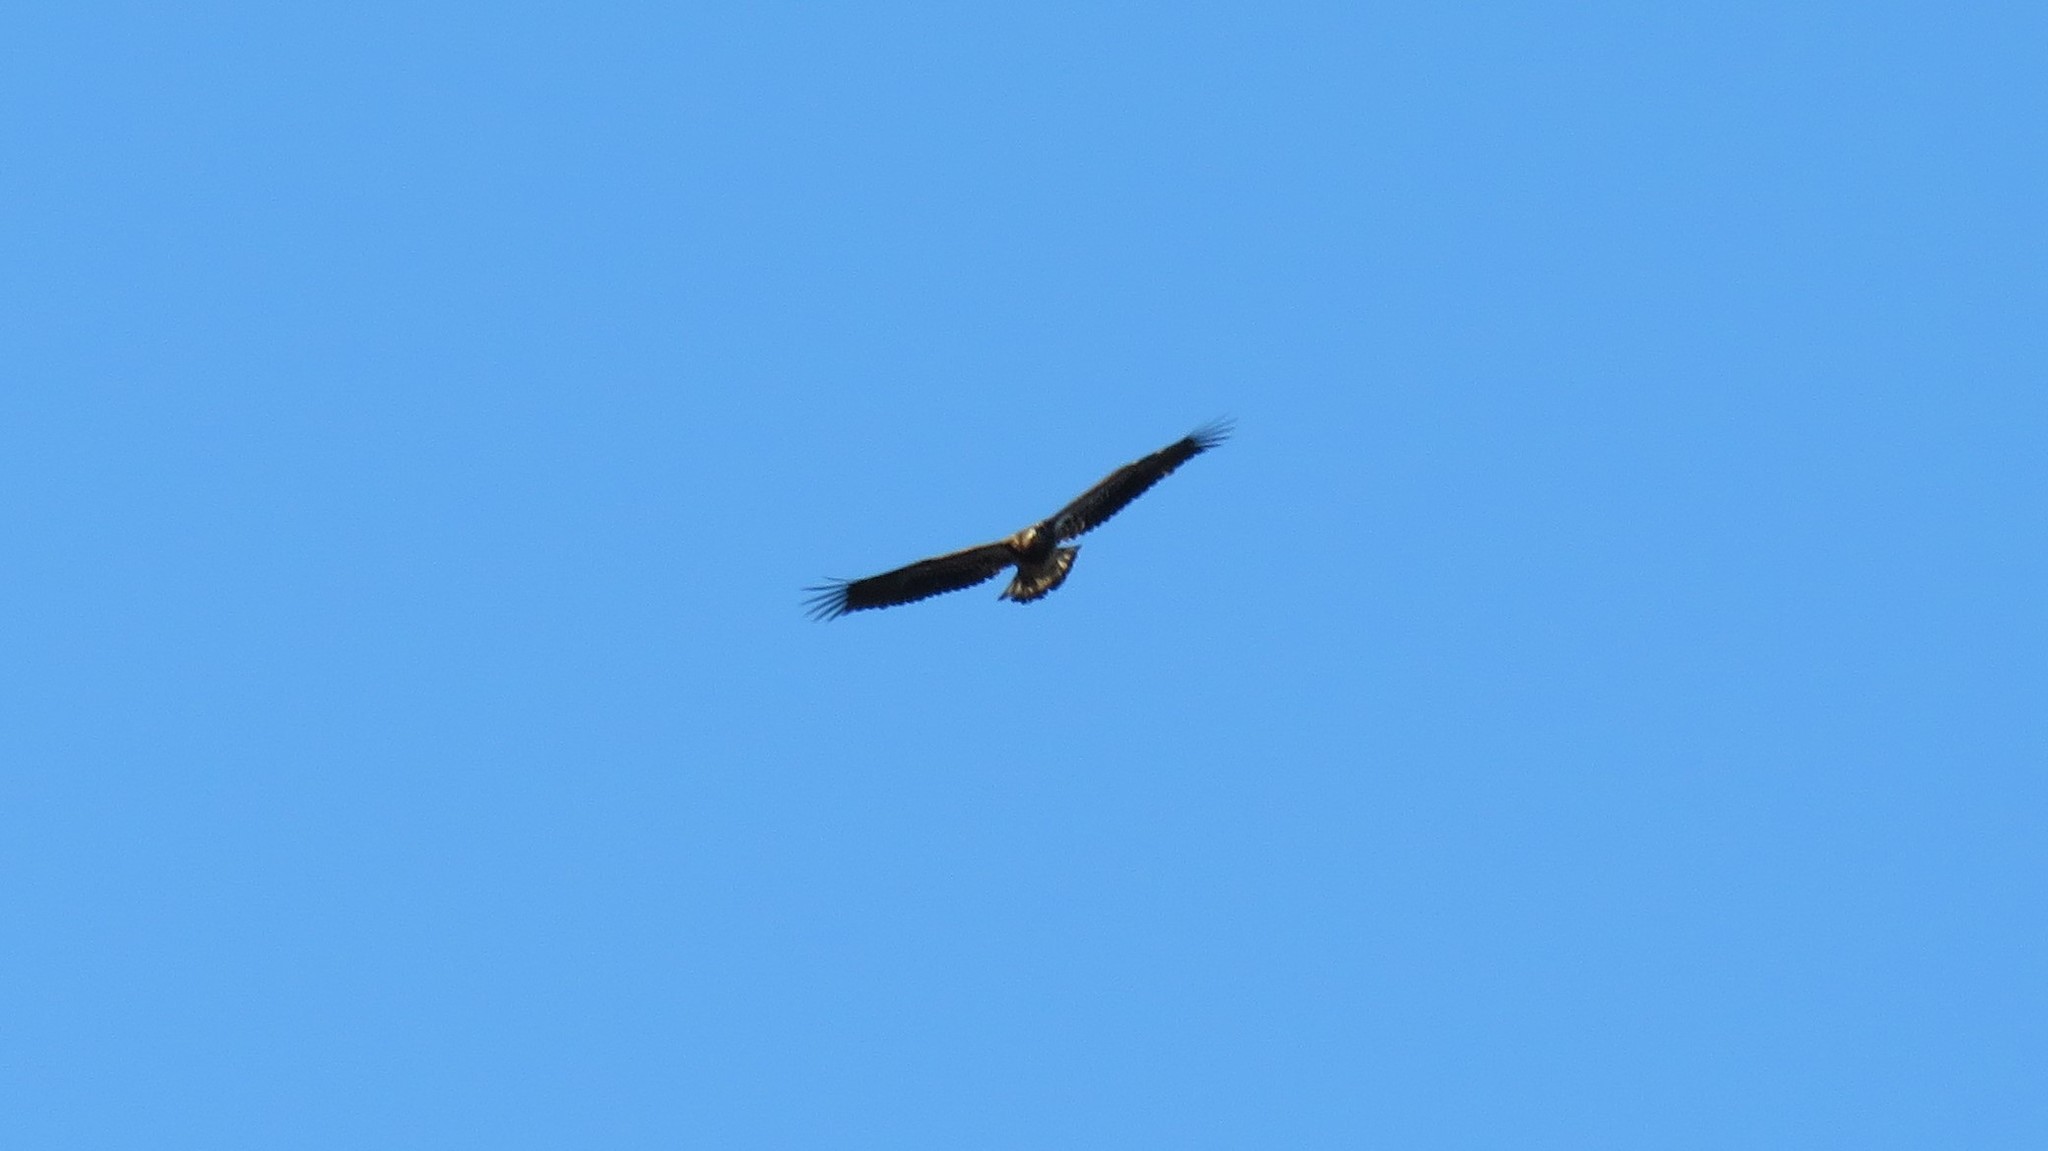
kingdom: Animalia
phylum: Chordata
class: Aves
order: Accipitriformes
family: Accipitridae
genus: Haliaeetus
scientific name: Haliaeetus leucocephalus
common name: Bald eagle
